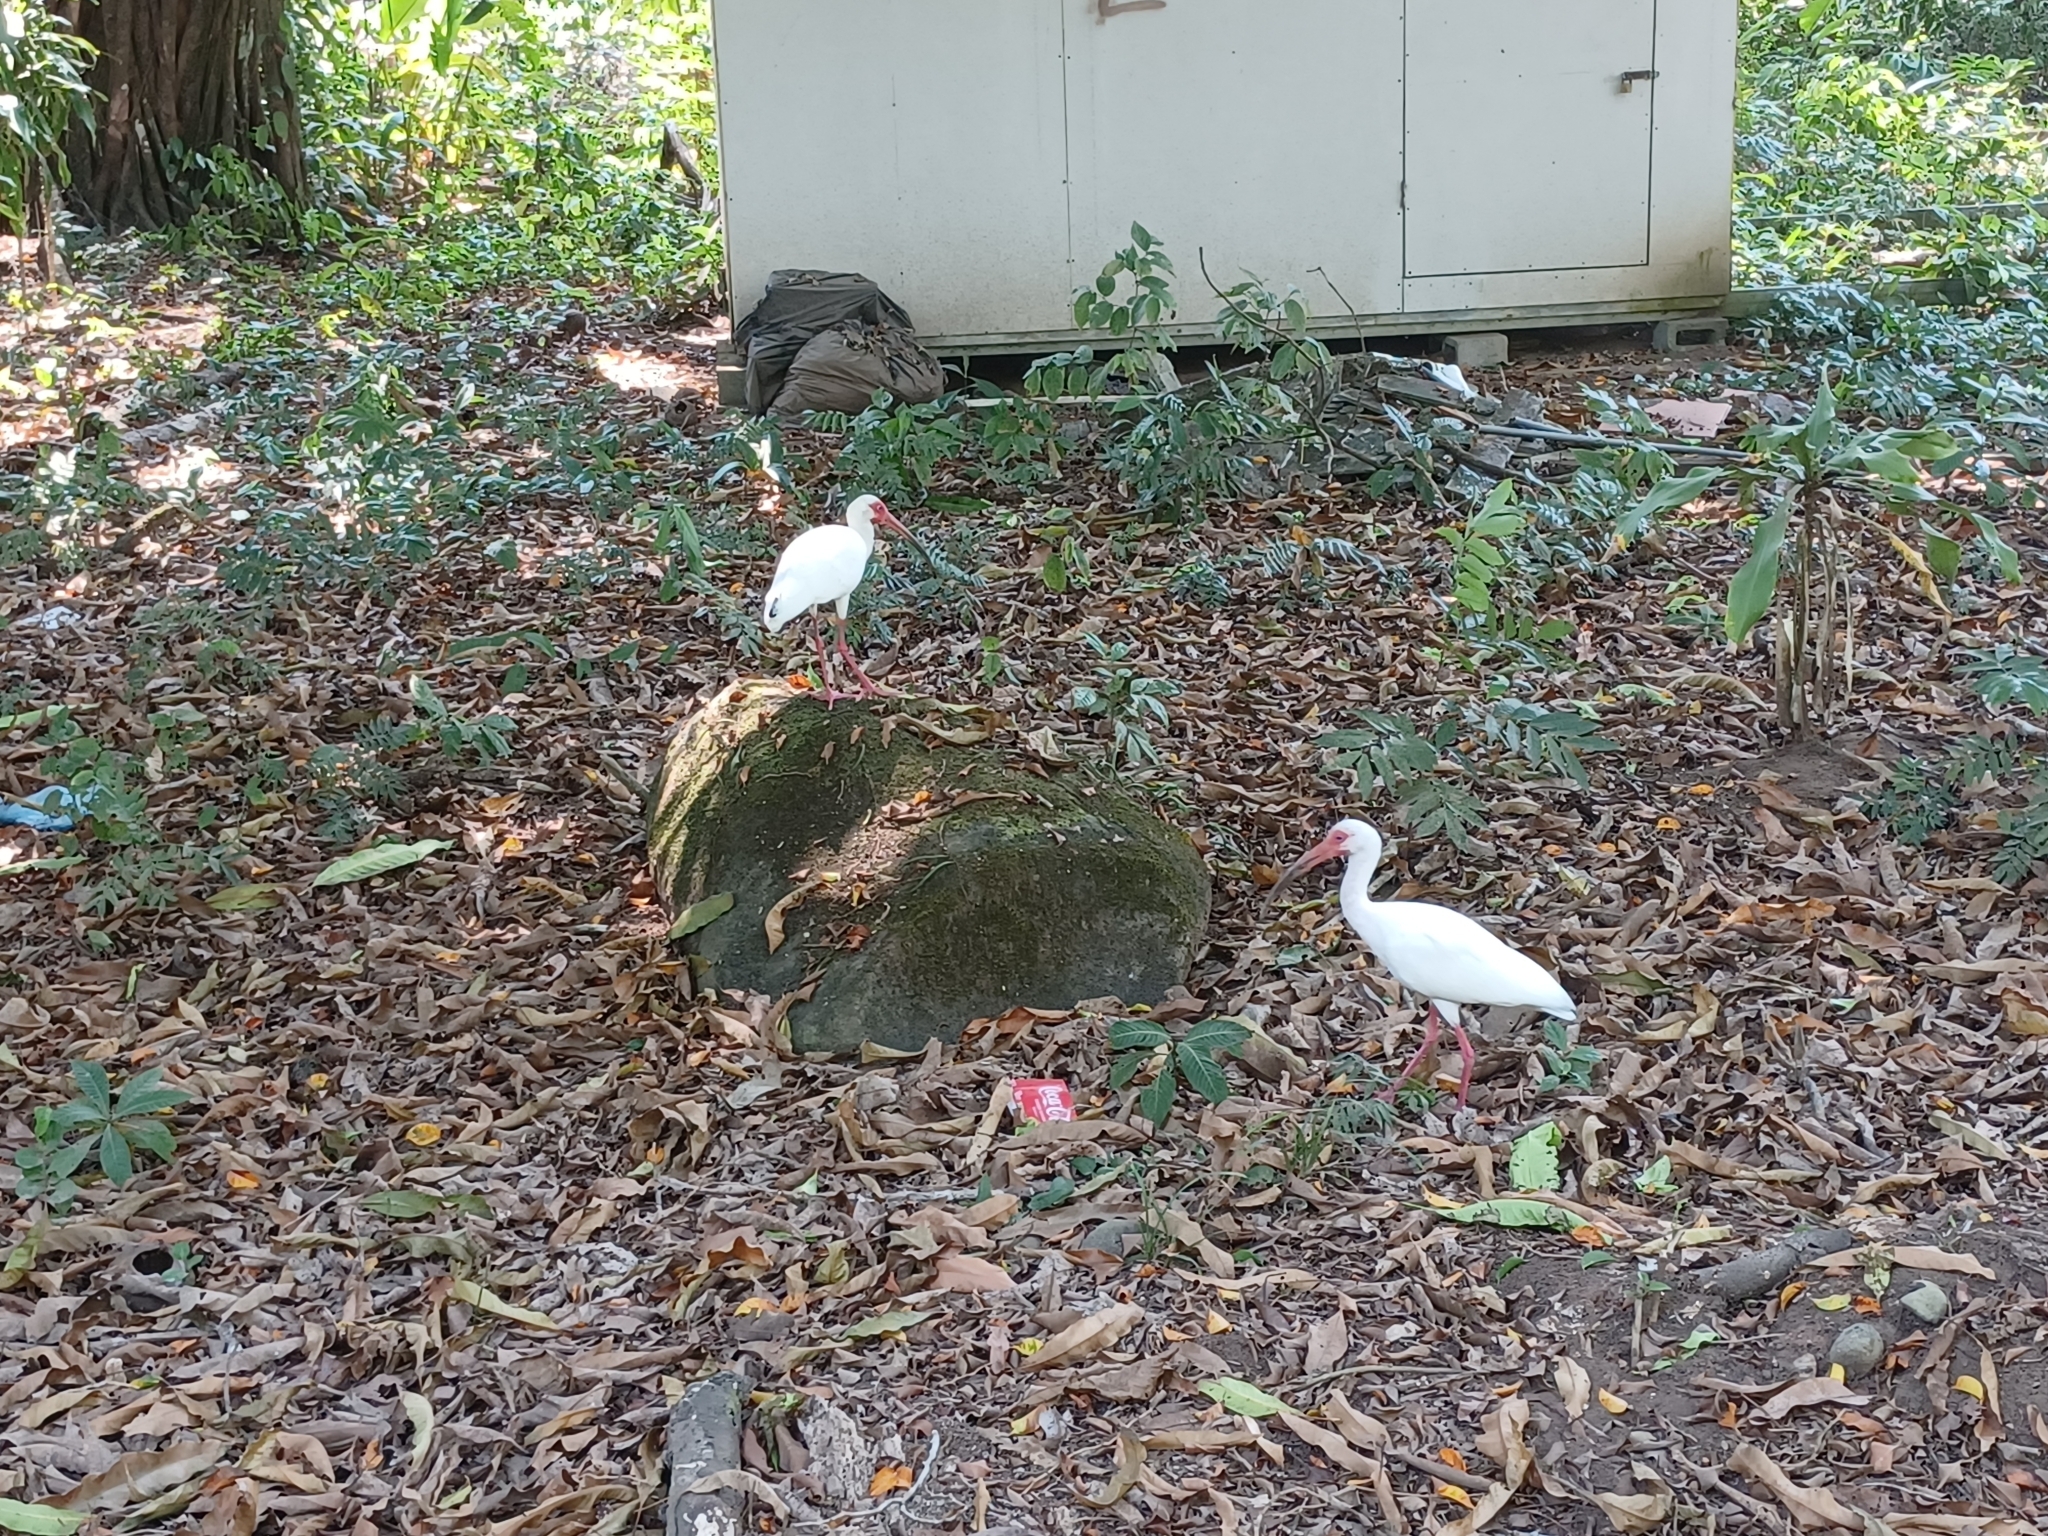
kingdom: Animalia
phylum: Chordata
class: Aves
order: Pelecaniformes
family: Threskiornithidae
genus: Eudocimus
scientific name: Eudocimus albus
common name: White ibis
